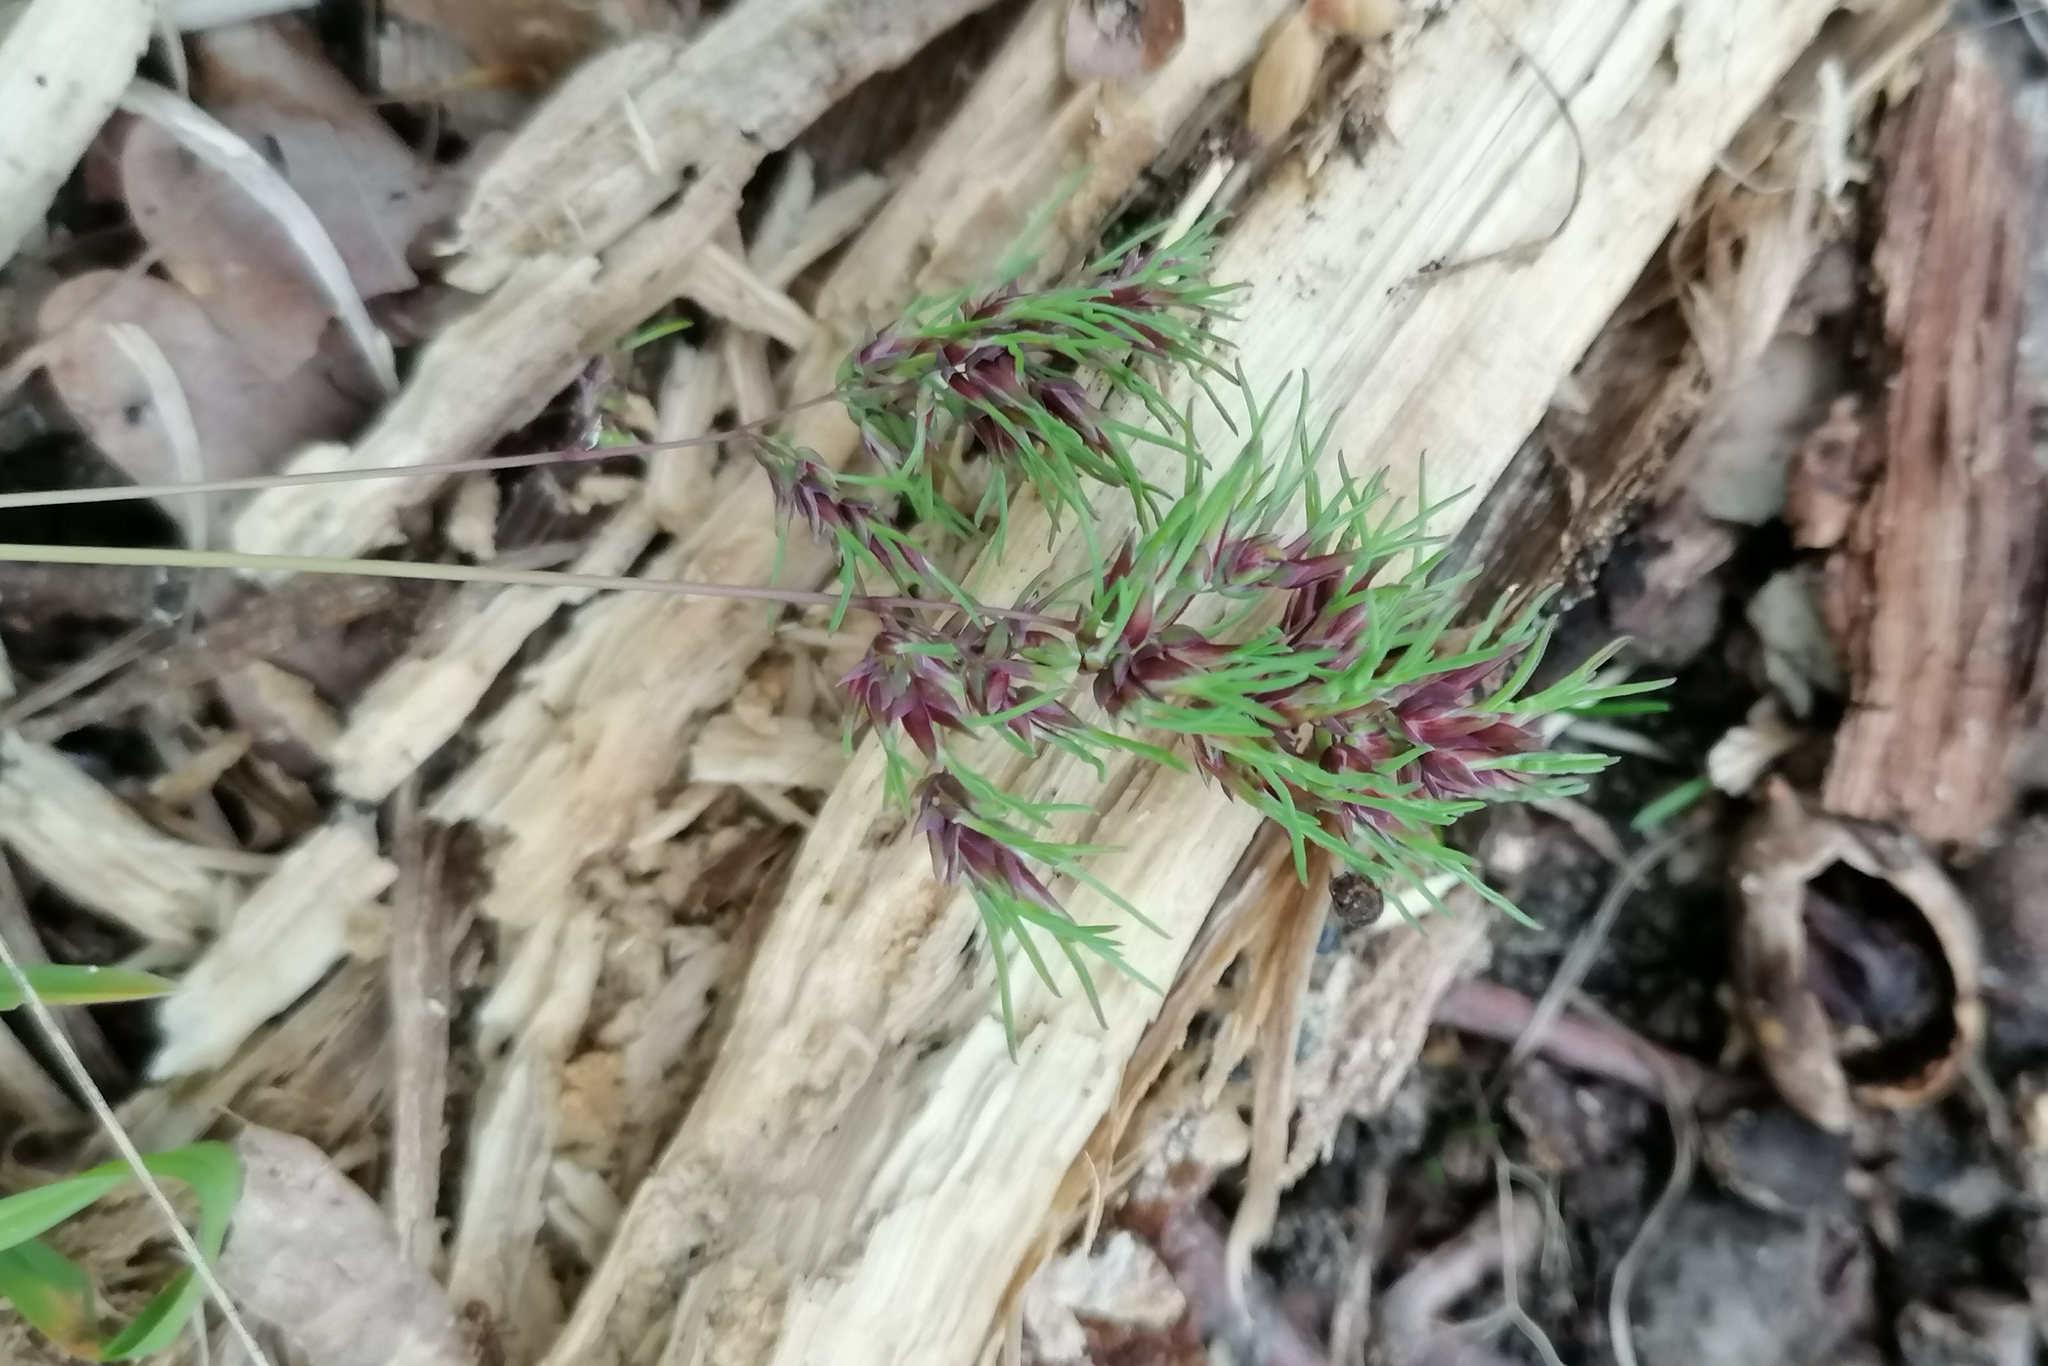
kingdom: Plantae
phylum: Tracheophyta
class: Liliopsida
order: Poales
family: Poaceae
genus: Poa
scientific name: Poa bulbosa
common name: Bulbous bluegrass
